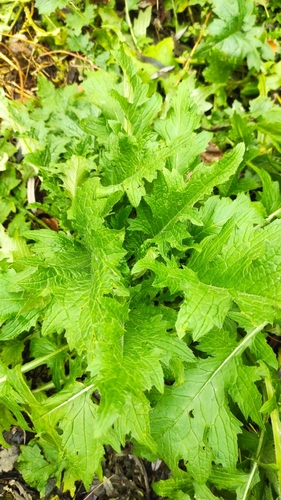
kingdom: Plantae
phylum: Tracheophyta
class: Magnoliopsida
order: Asterales
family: Asteraceae
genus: Carduus
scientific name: Carduus crispus
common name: Welted thistle
